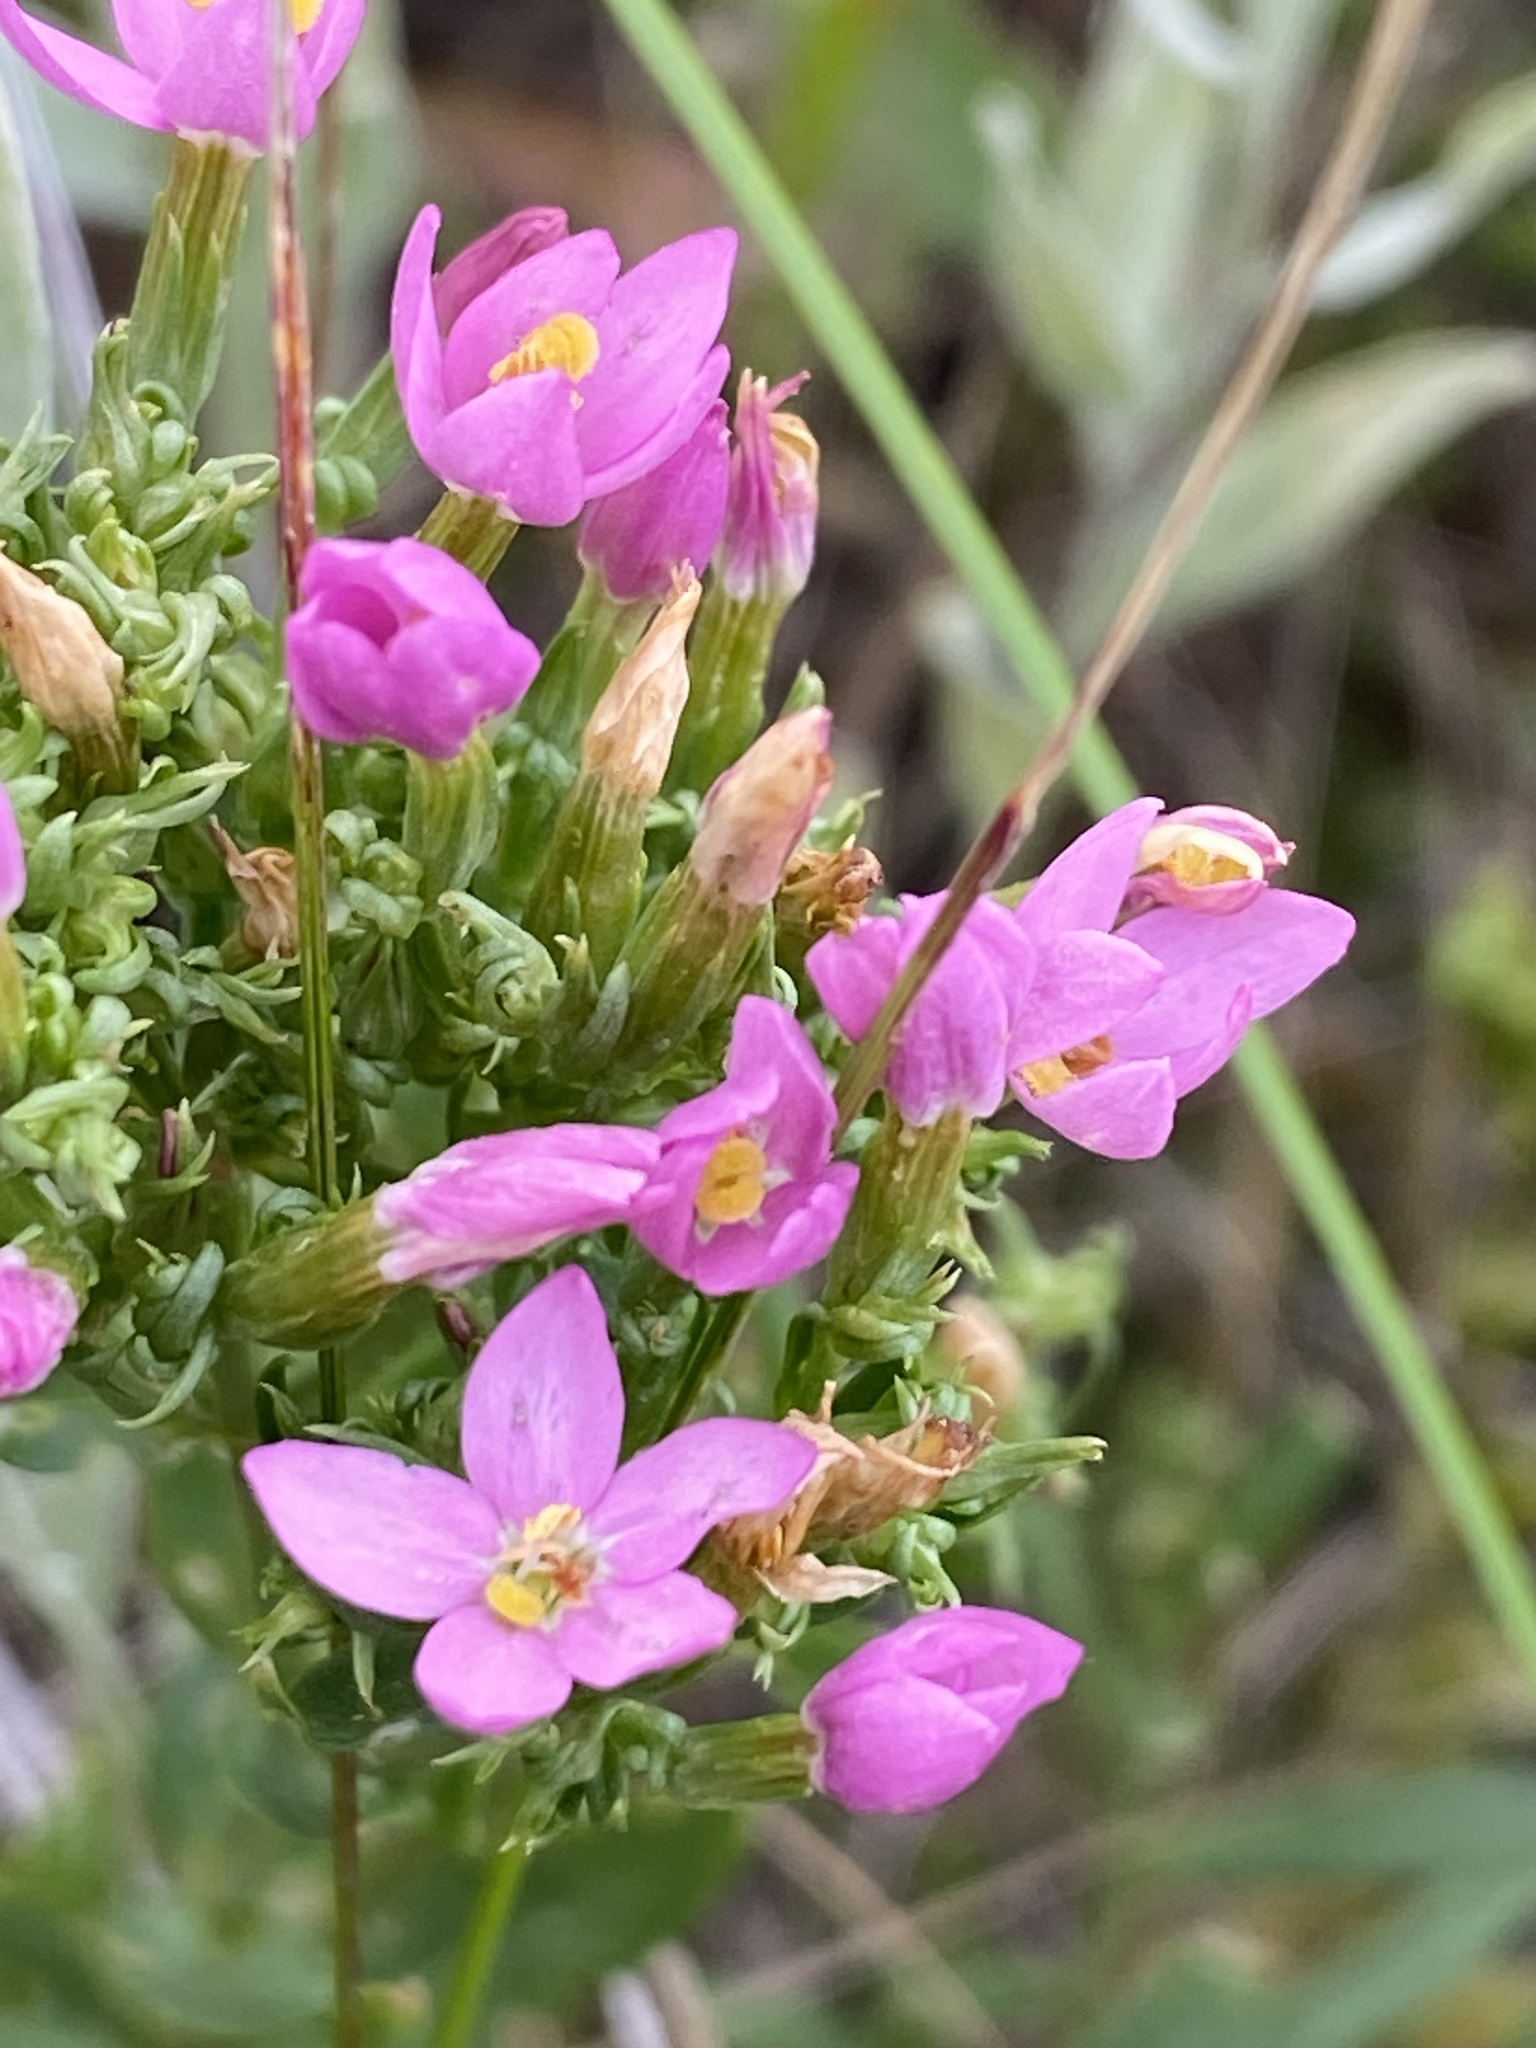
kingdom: Plantae
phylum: Tracheophyta
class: Magnoliopsida
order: Gentianales
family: Gentianaceae
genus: Centaurium
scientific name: Centaurium erythraea
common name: Common centaury
